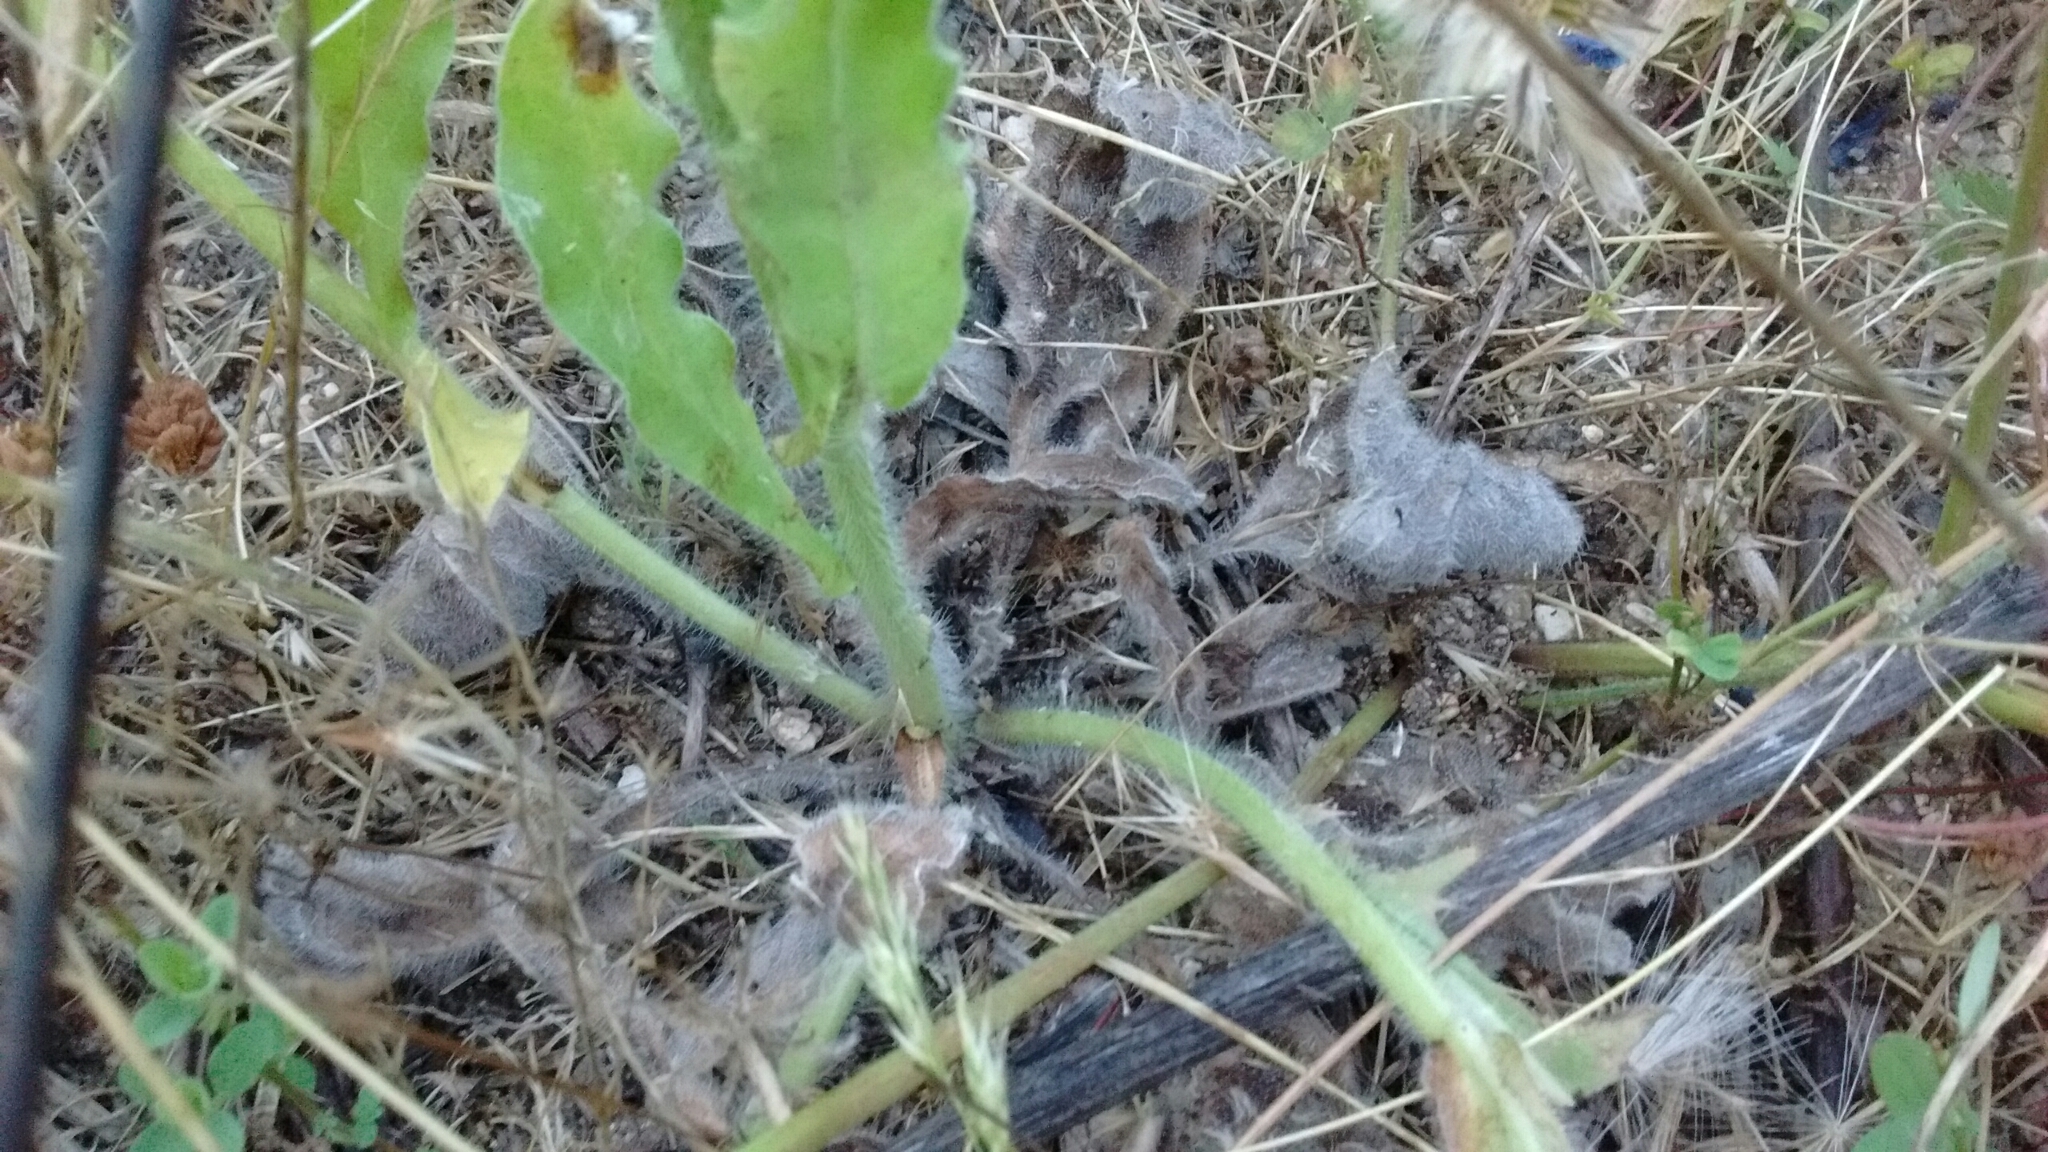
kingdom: Plantae
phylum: Tracheophyta
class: Magnoliopsida
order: Boraginales
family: Boraginaceae
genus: Echium
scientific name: Echium plantagineum
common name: Purple viper's-bugloss
